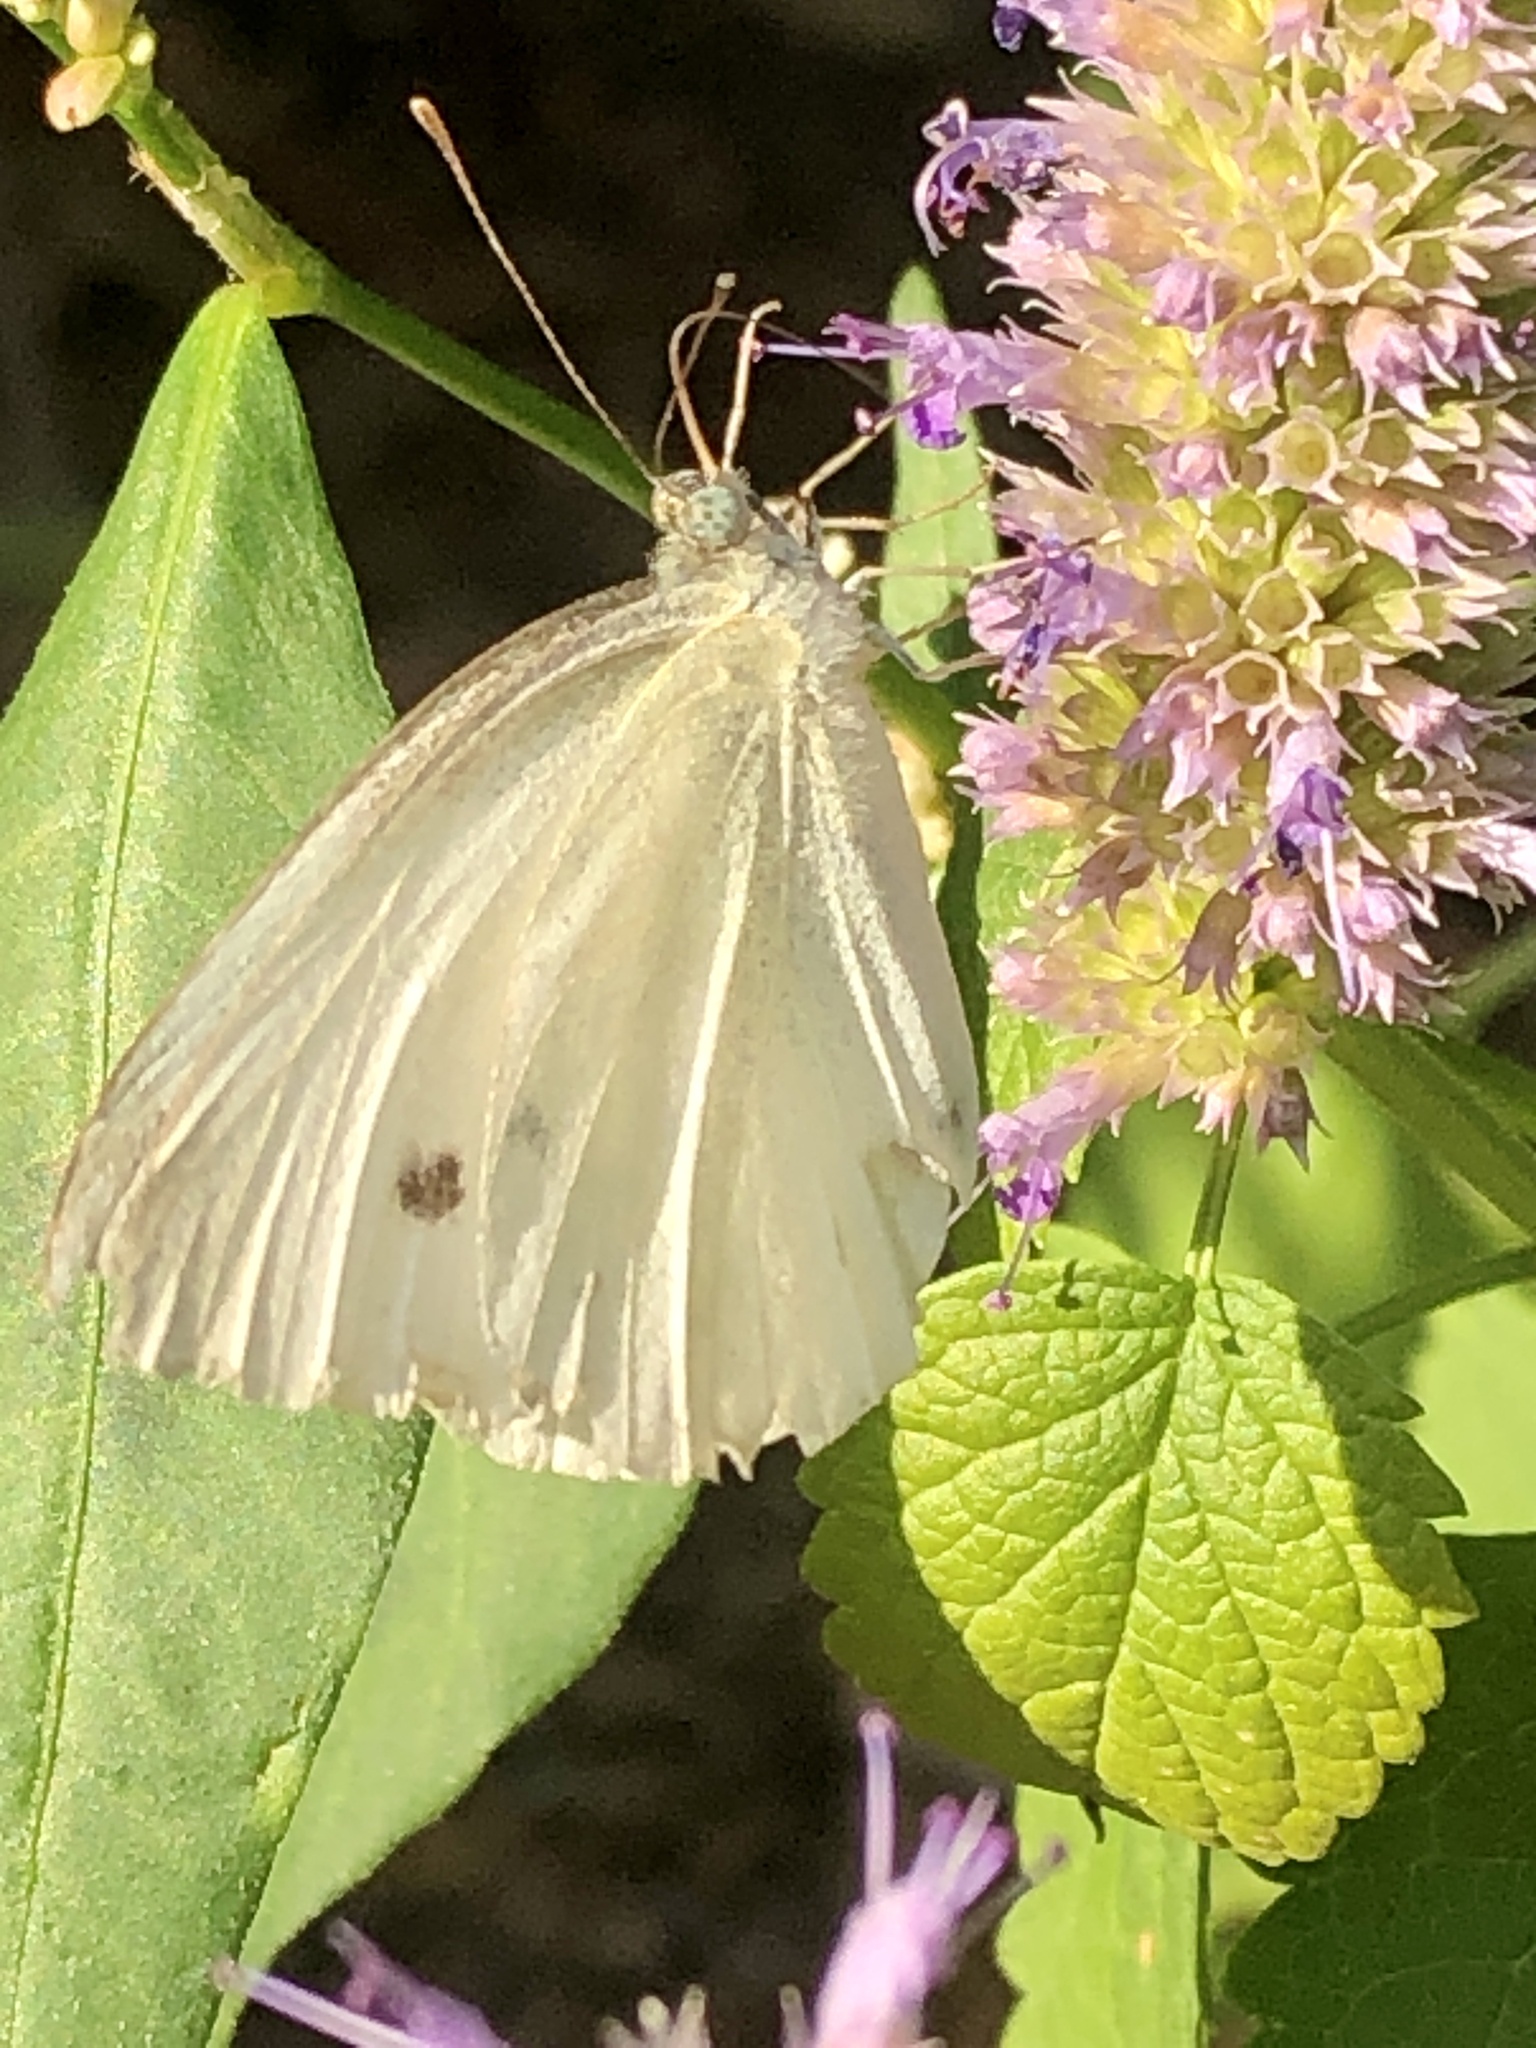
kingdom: Animalia
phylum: Arthropoda
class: Insecta
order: Lepidoptera
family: Pieridae
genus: Pieris
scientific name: Pieris rapae
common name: Small white
